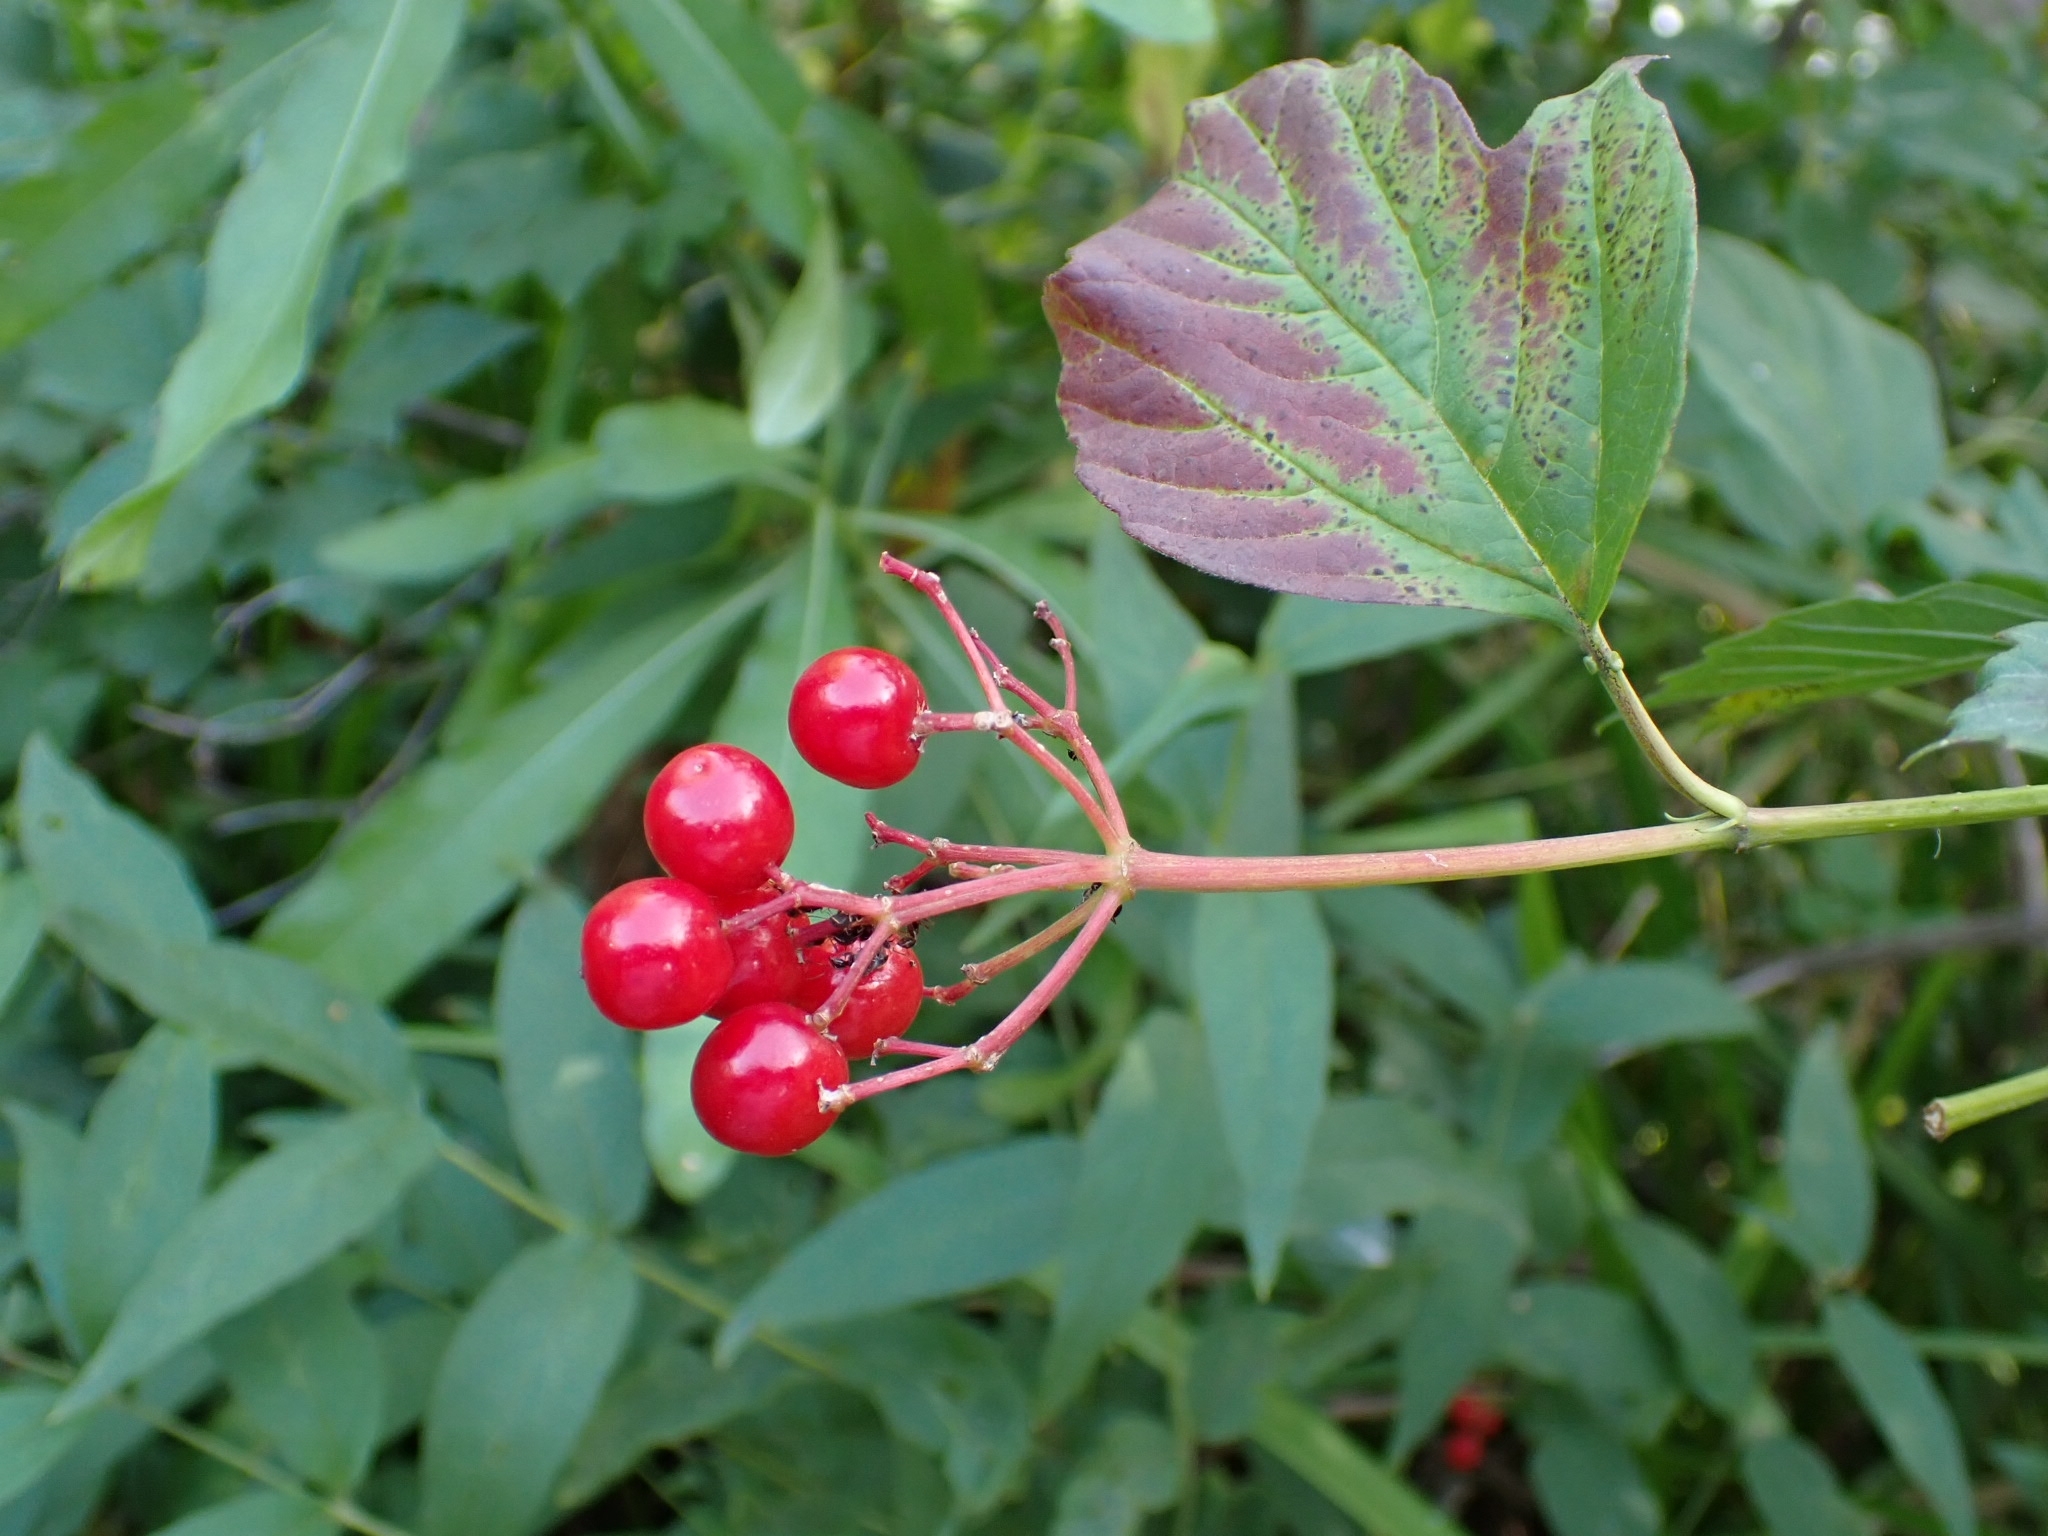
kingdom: Plantae
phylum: Tracheophyta
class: Magnoliopsida
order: Dipsacales
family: Viburnaceae
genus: Viburnum
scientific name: Viburnum opulus
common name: Guelder-rose
